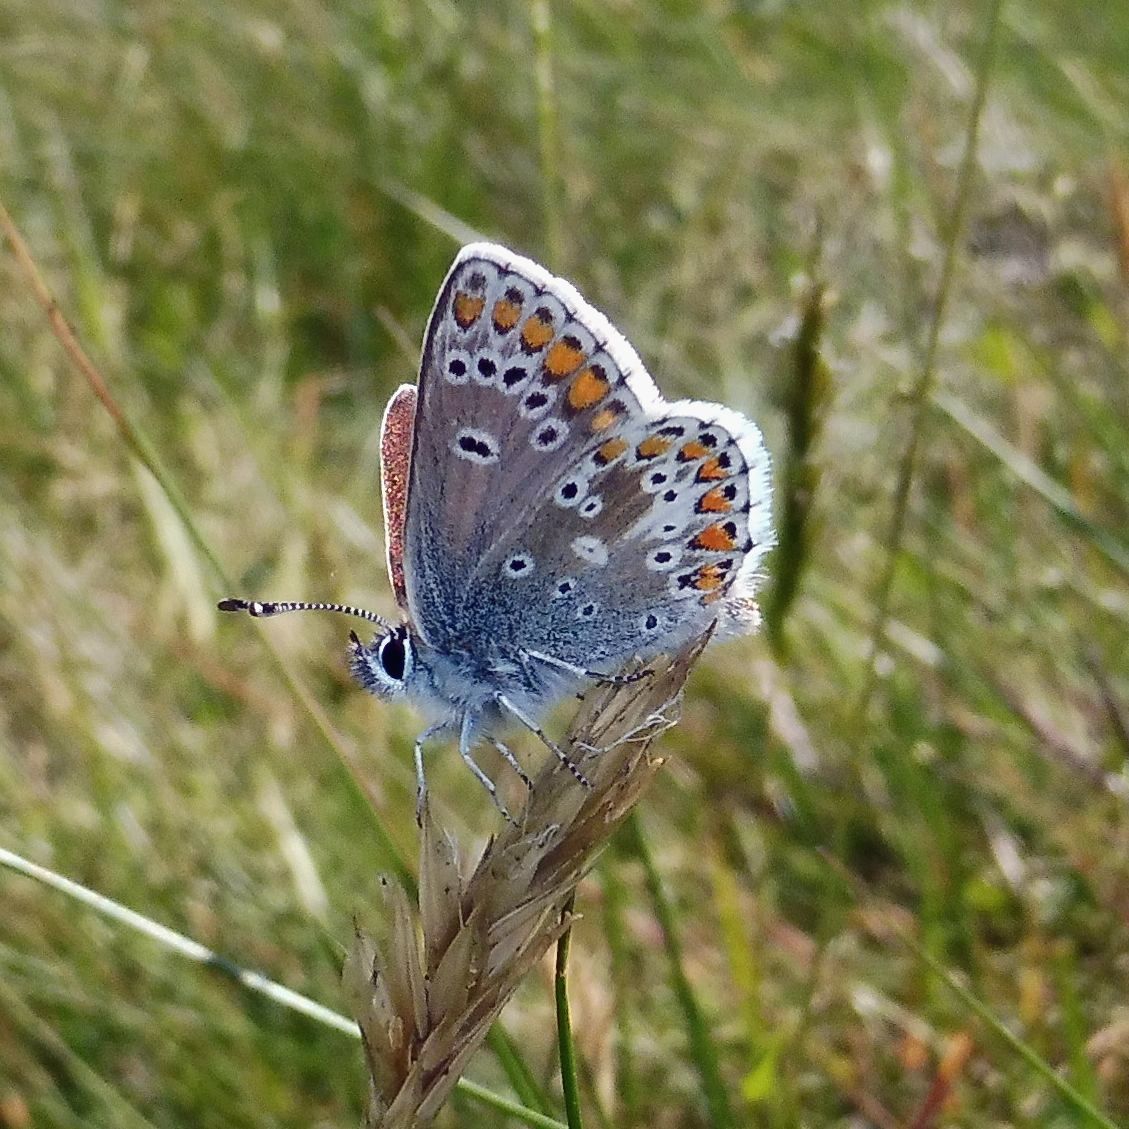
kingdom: Animalia
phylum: Arthropoda
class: Insecta
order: Lepidoptera
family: Lycaenidae
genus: Aricia
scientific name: Aricia agestis
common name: Brown argus
